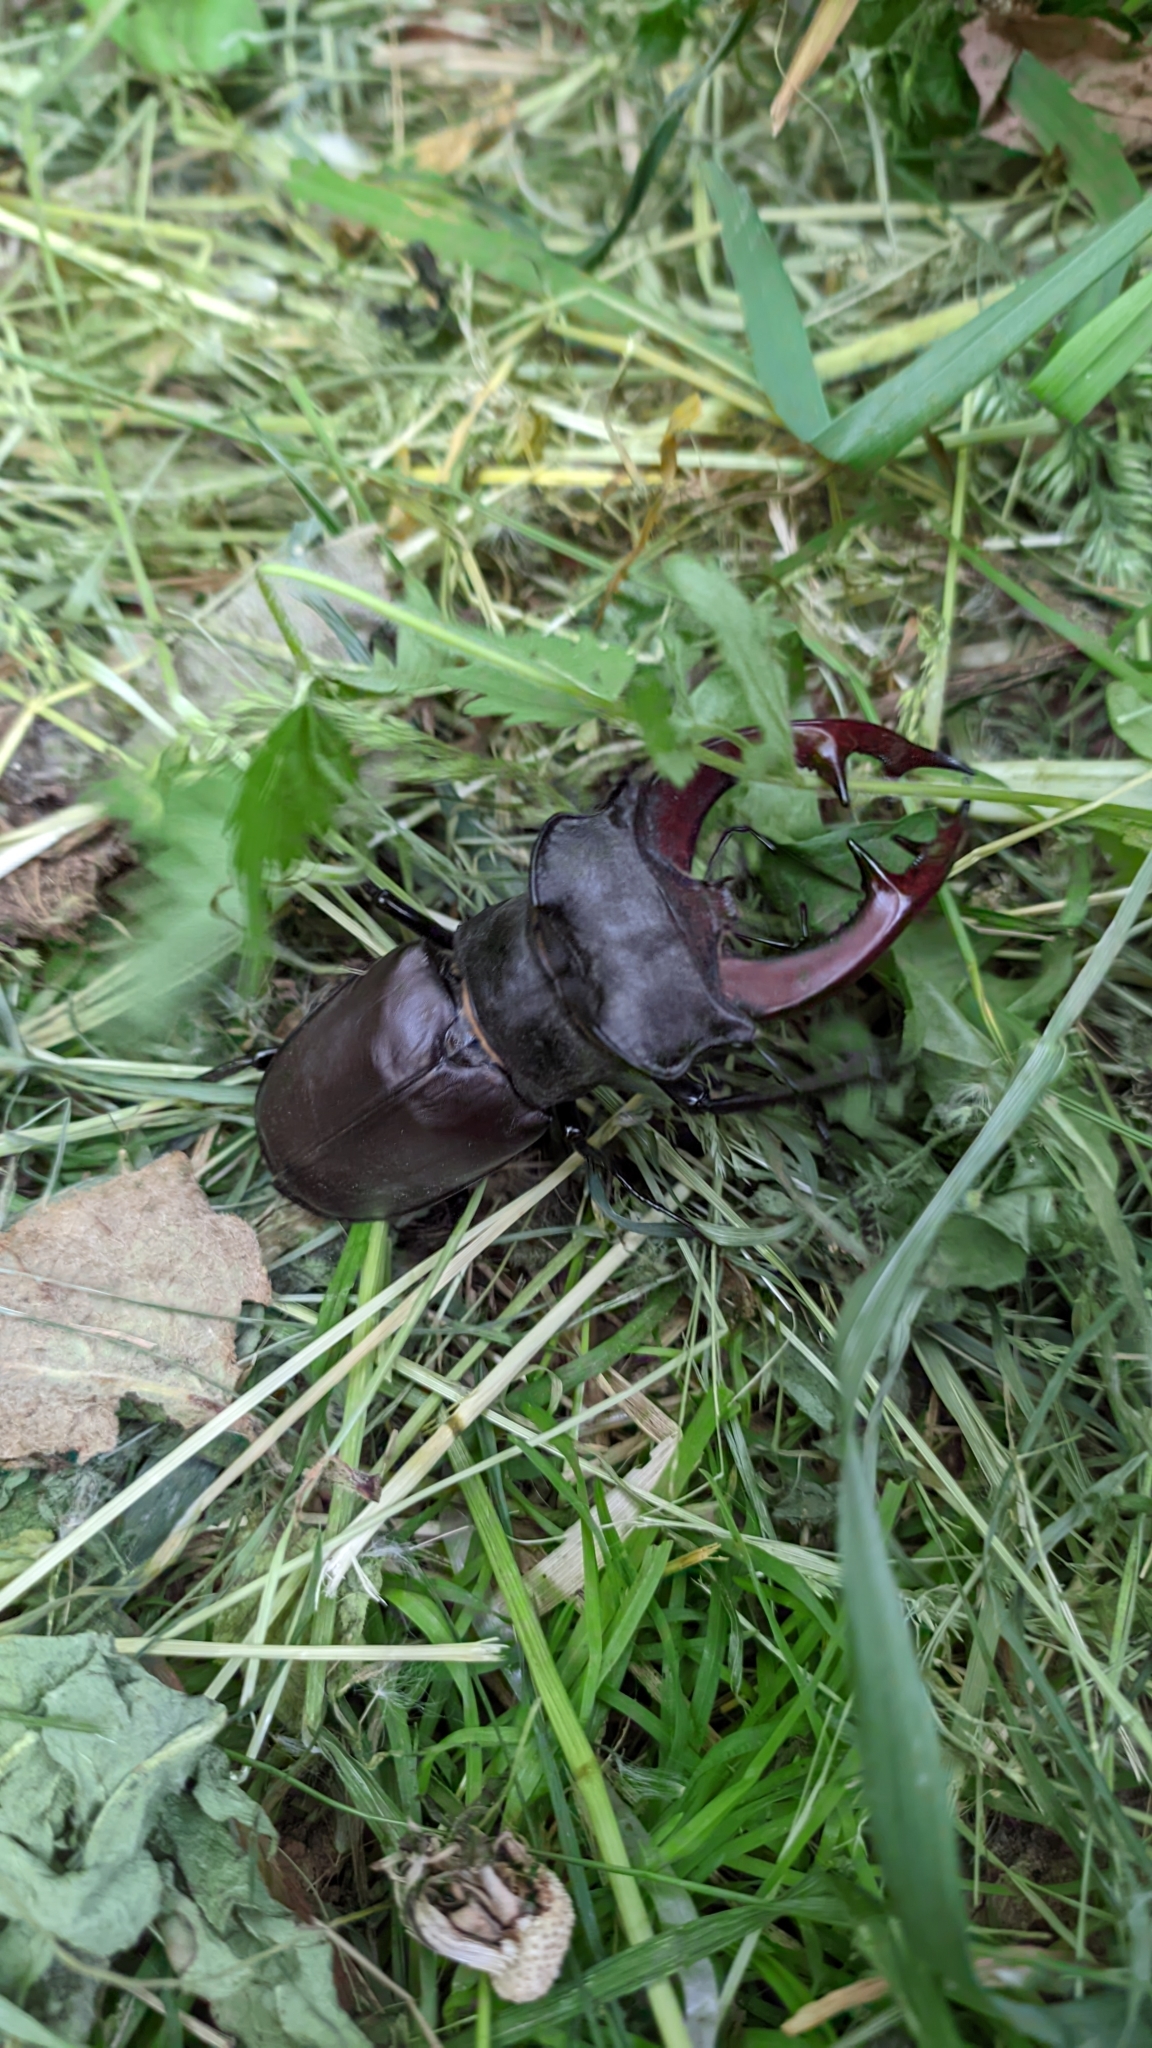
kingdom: Animalia
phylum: Arthropoda
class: Insecta
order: Coleoptera
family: Lucanidae
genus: Lucanus
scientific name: Lucanus cervus
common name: Stag beetle
